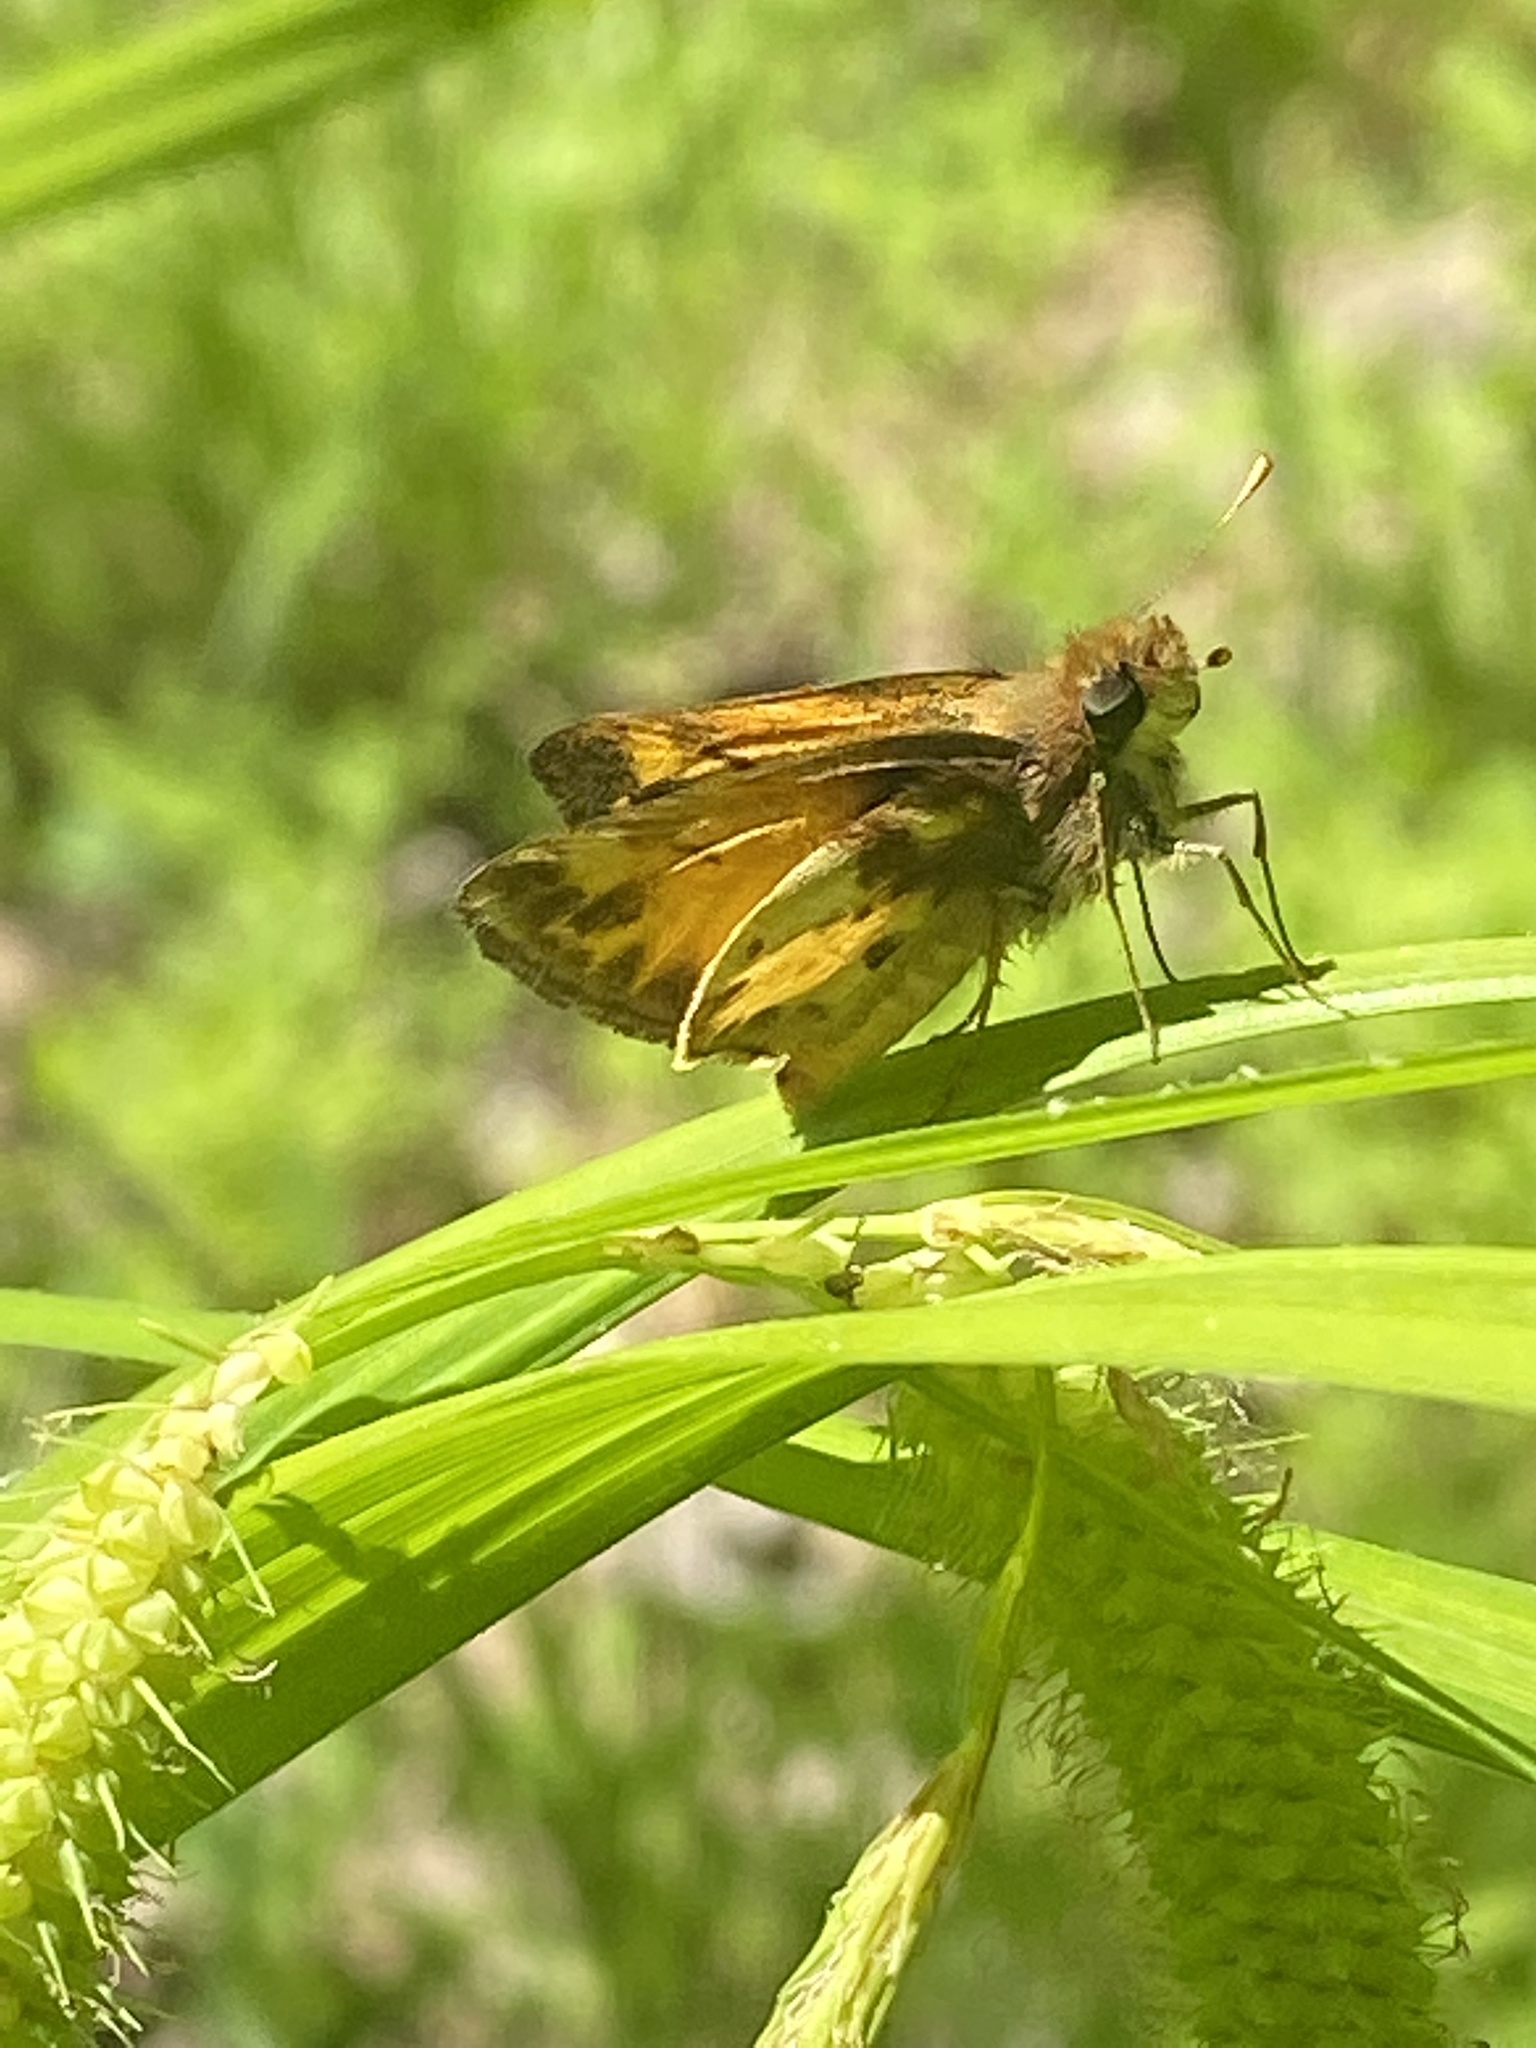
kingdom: Animalia
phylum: Arthropoda
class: Insecta
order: Lepidoptera
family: Hesperiidae
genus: Lon
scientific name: Lon zabulon
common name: Zabulon skipper
